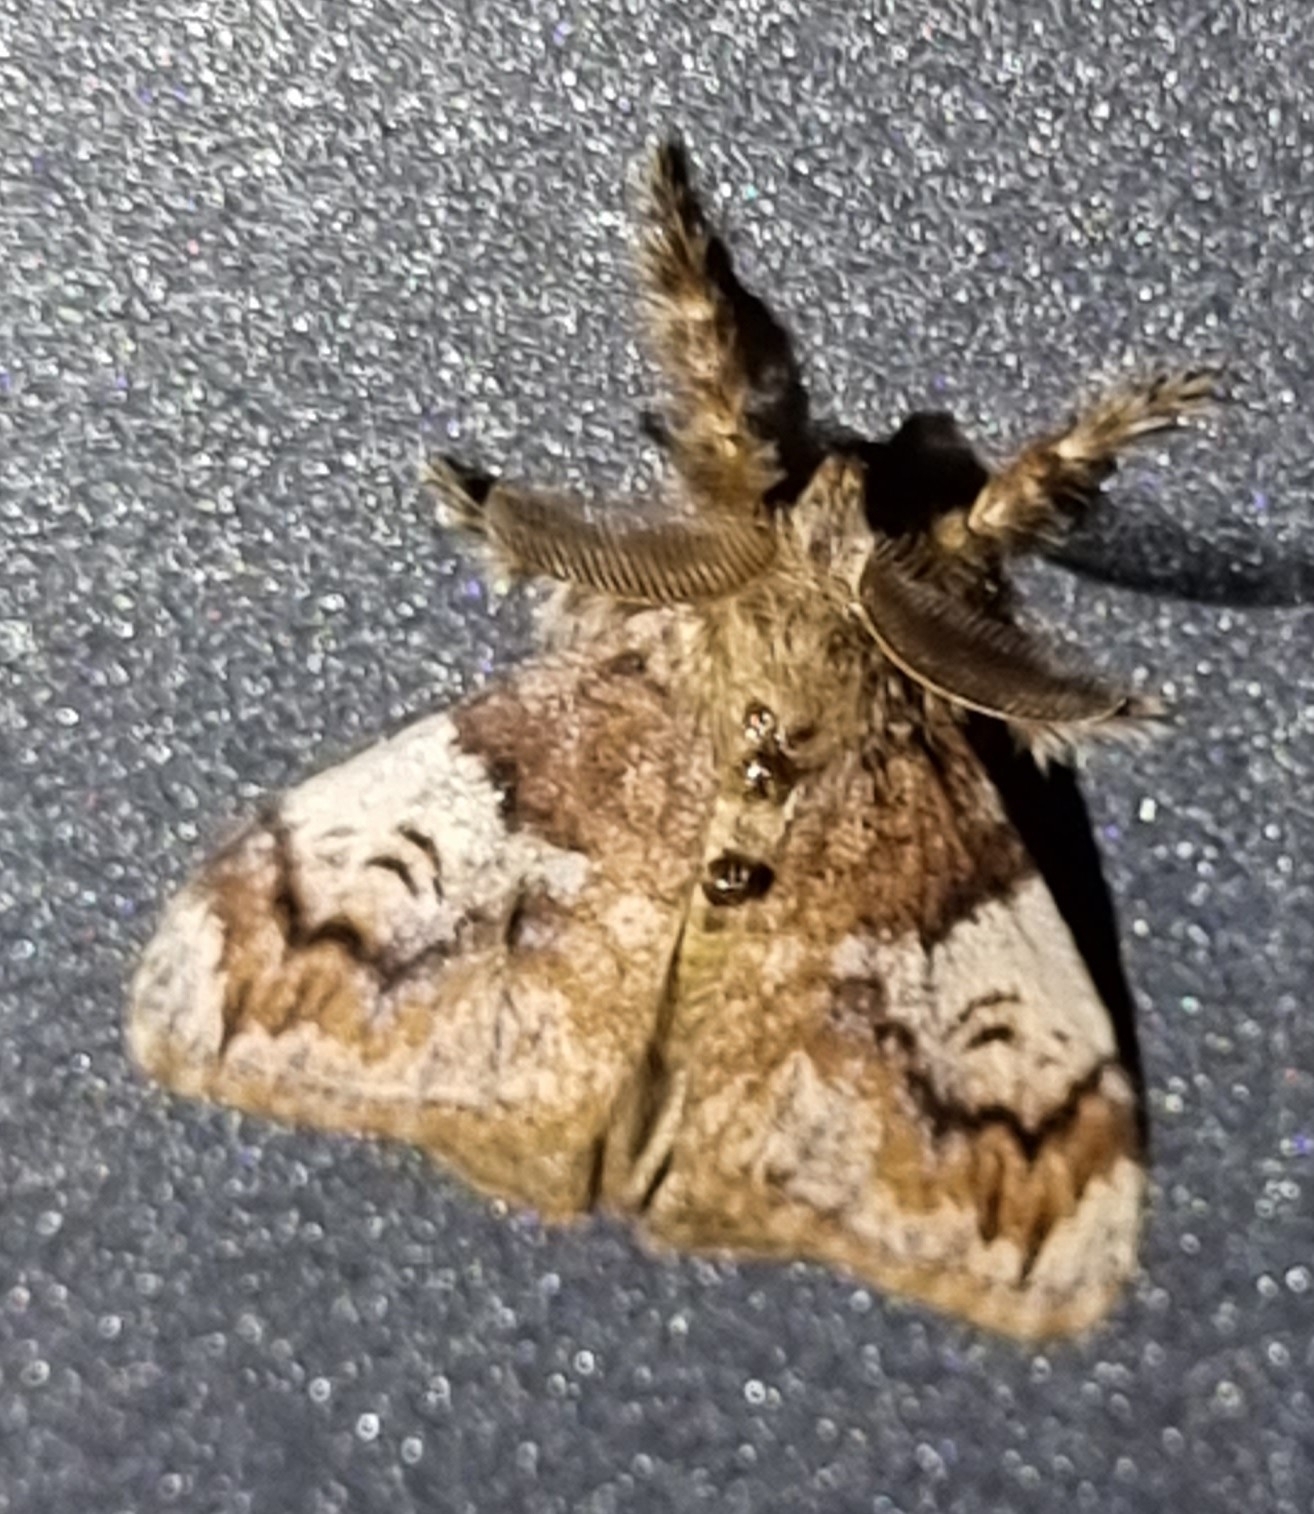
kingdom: Animalia
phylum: Arthropoda
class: Insecta
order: Lepidoptera
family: Erebidae
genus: Orgyia
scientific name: Orgyia australis
